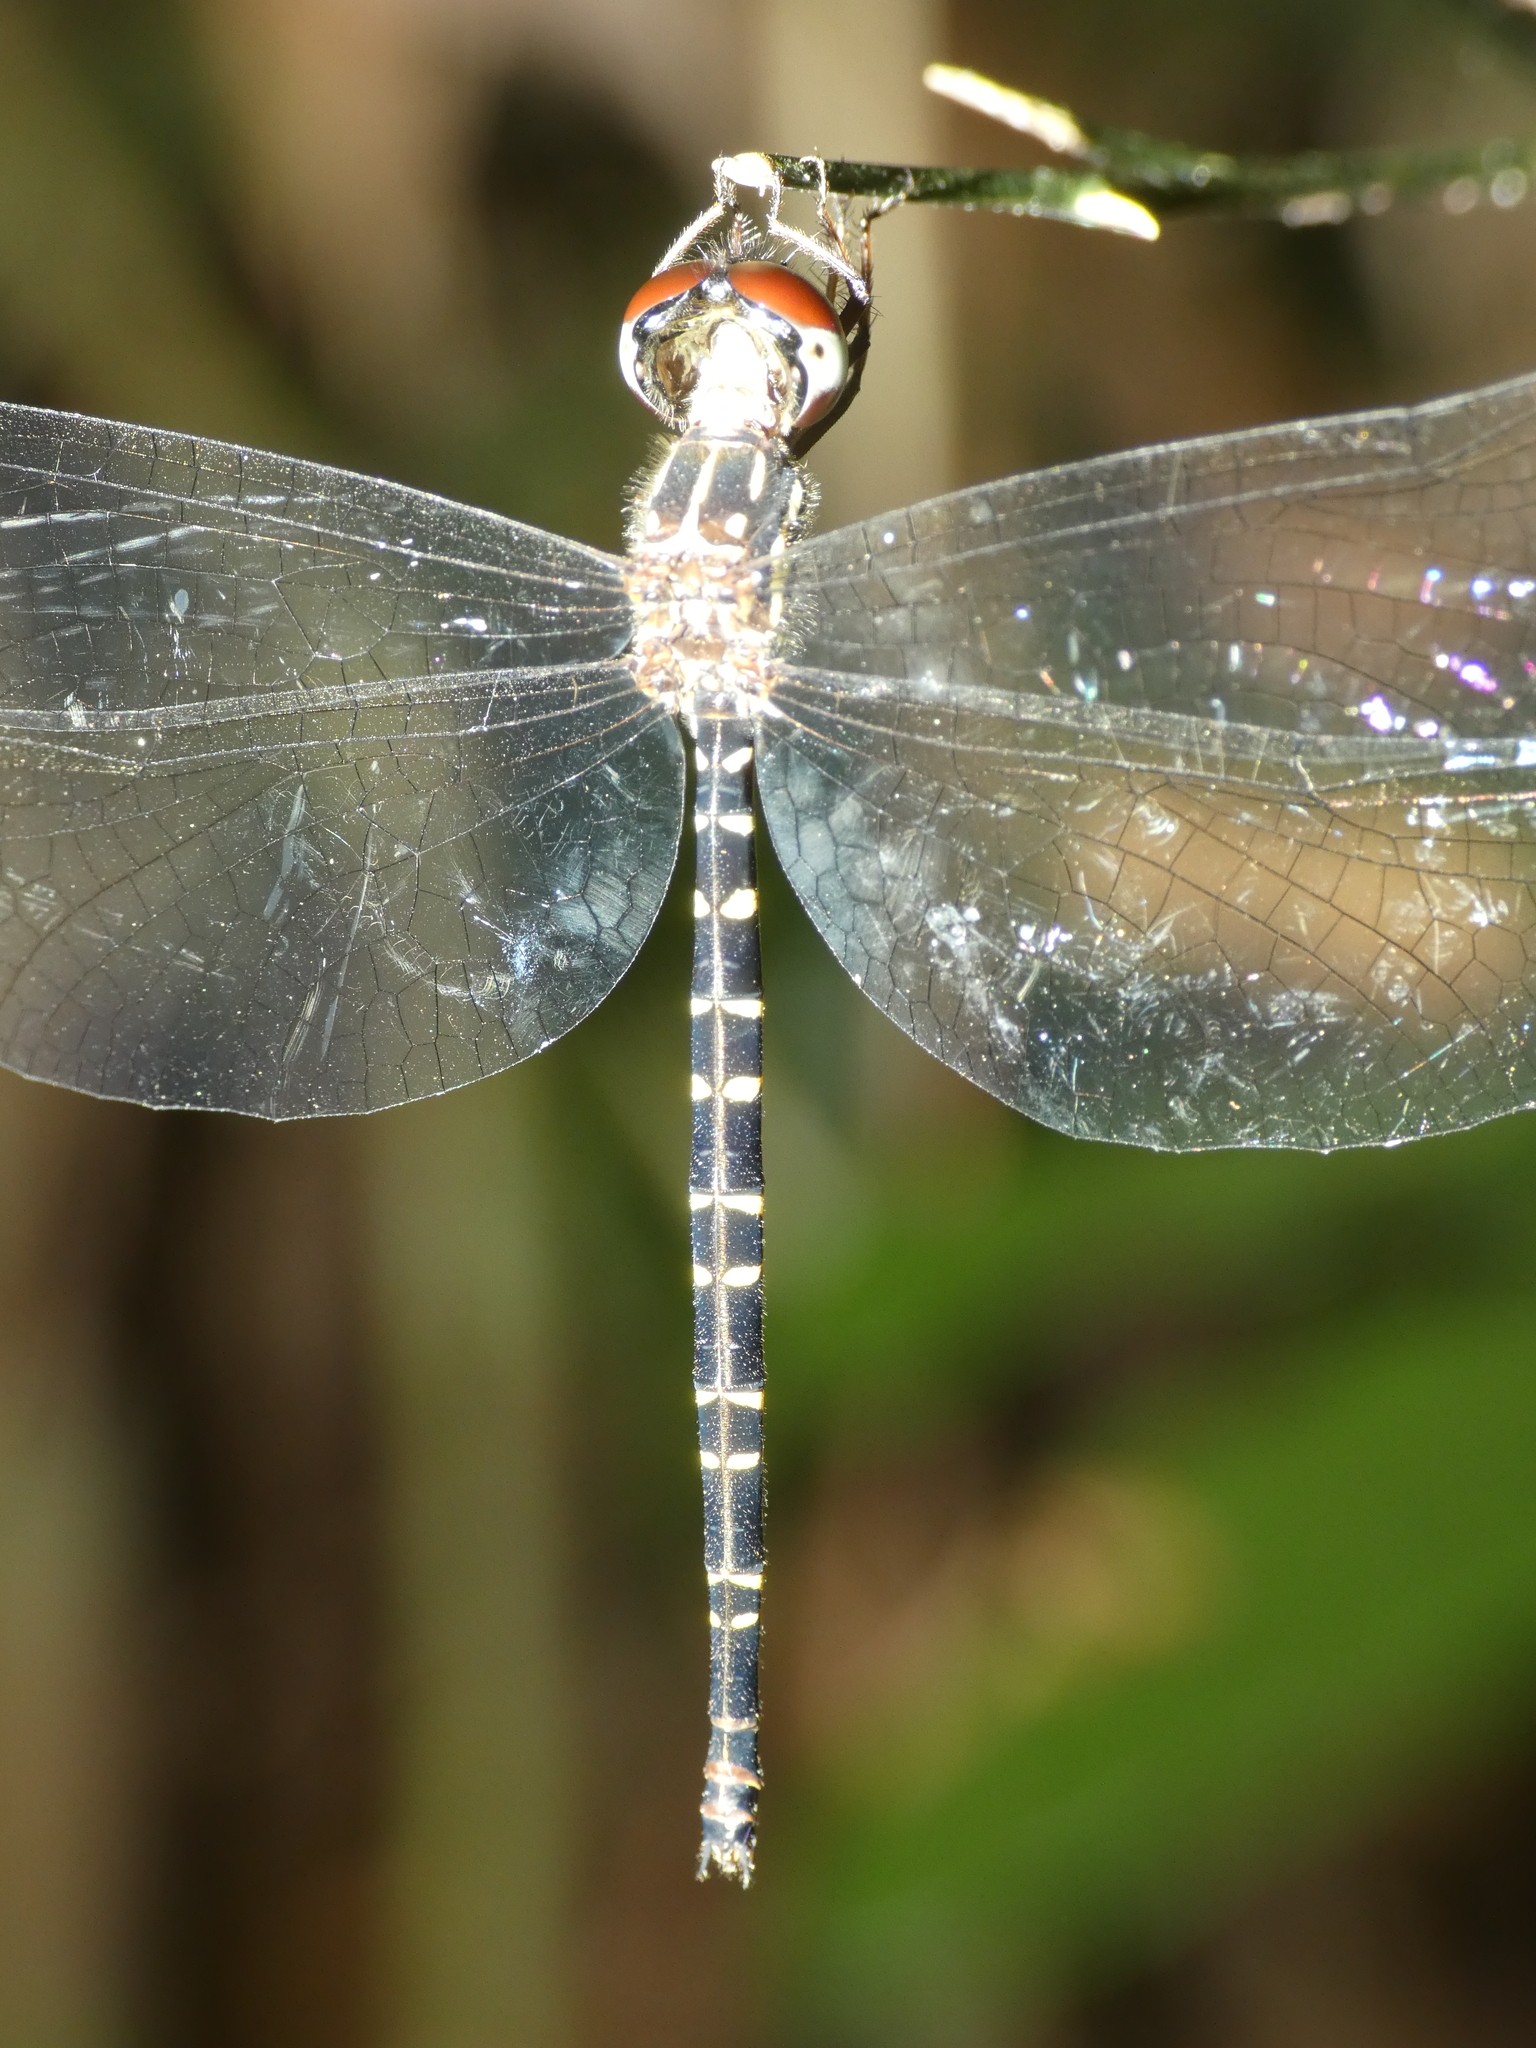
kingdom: Animalia
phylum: Arthropoda
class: Insecta
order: Odonata
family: Synthemistidae
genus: Choristhemis
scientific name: Choristhemis olivei
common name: Delicate tigertail
